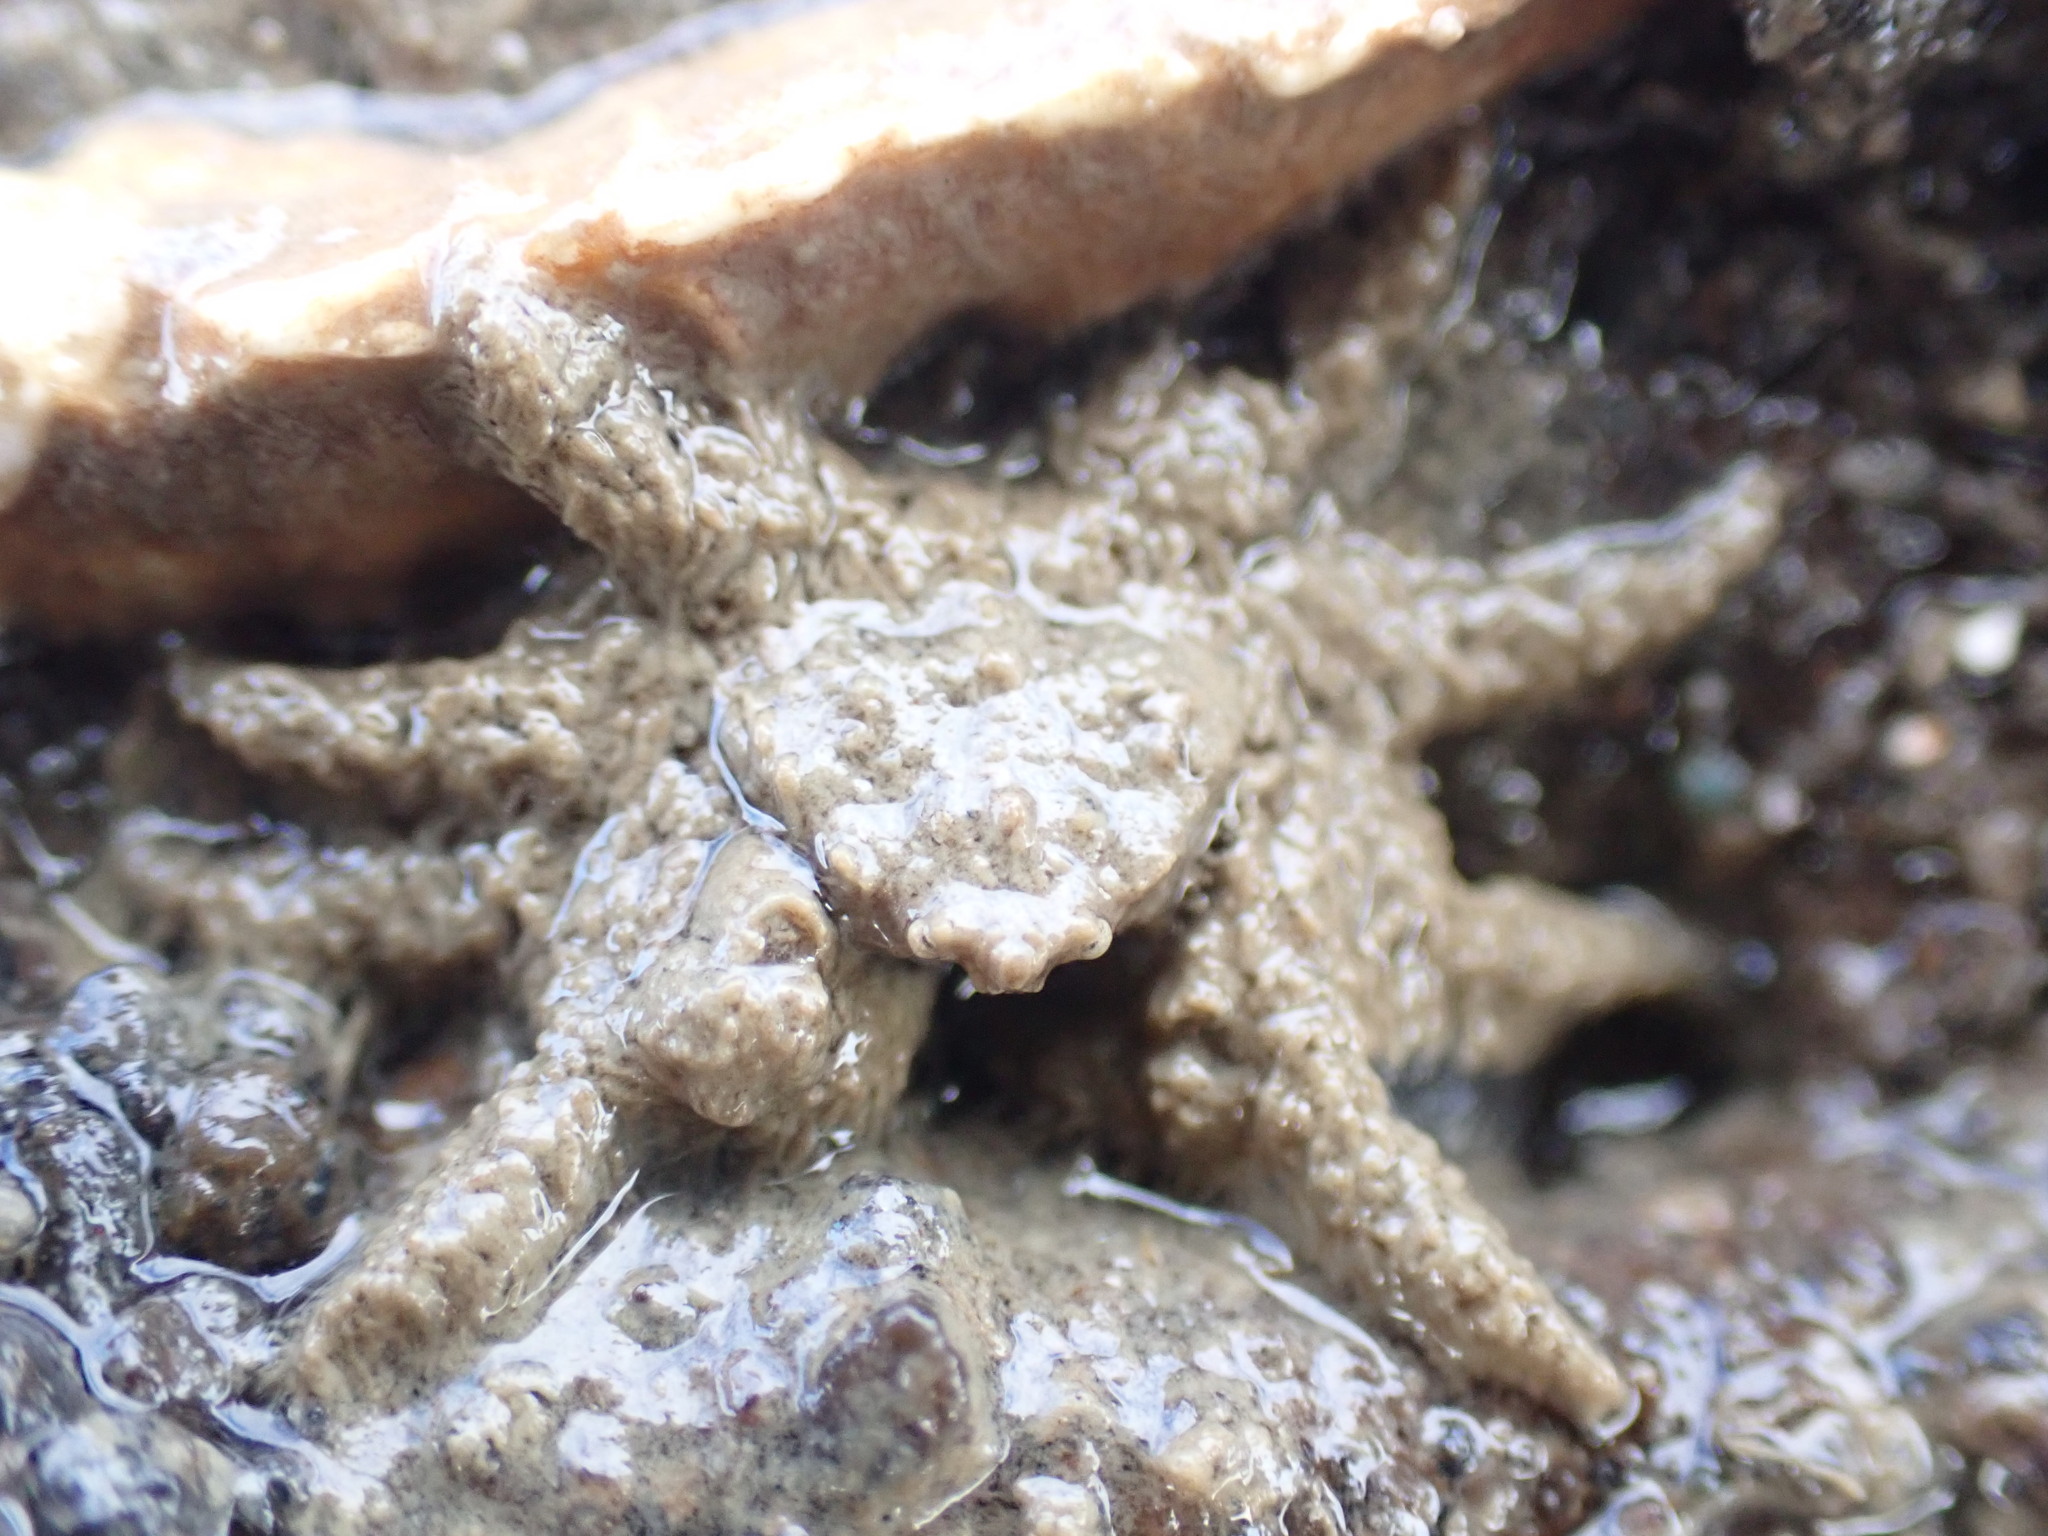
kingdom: Animalia
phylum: Arthropoda
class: Malacostraca
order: Decapoda
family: Hymenosomatidae
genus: Neohymenicus
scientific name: Neohymenicus pubescens
